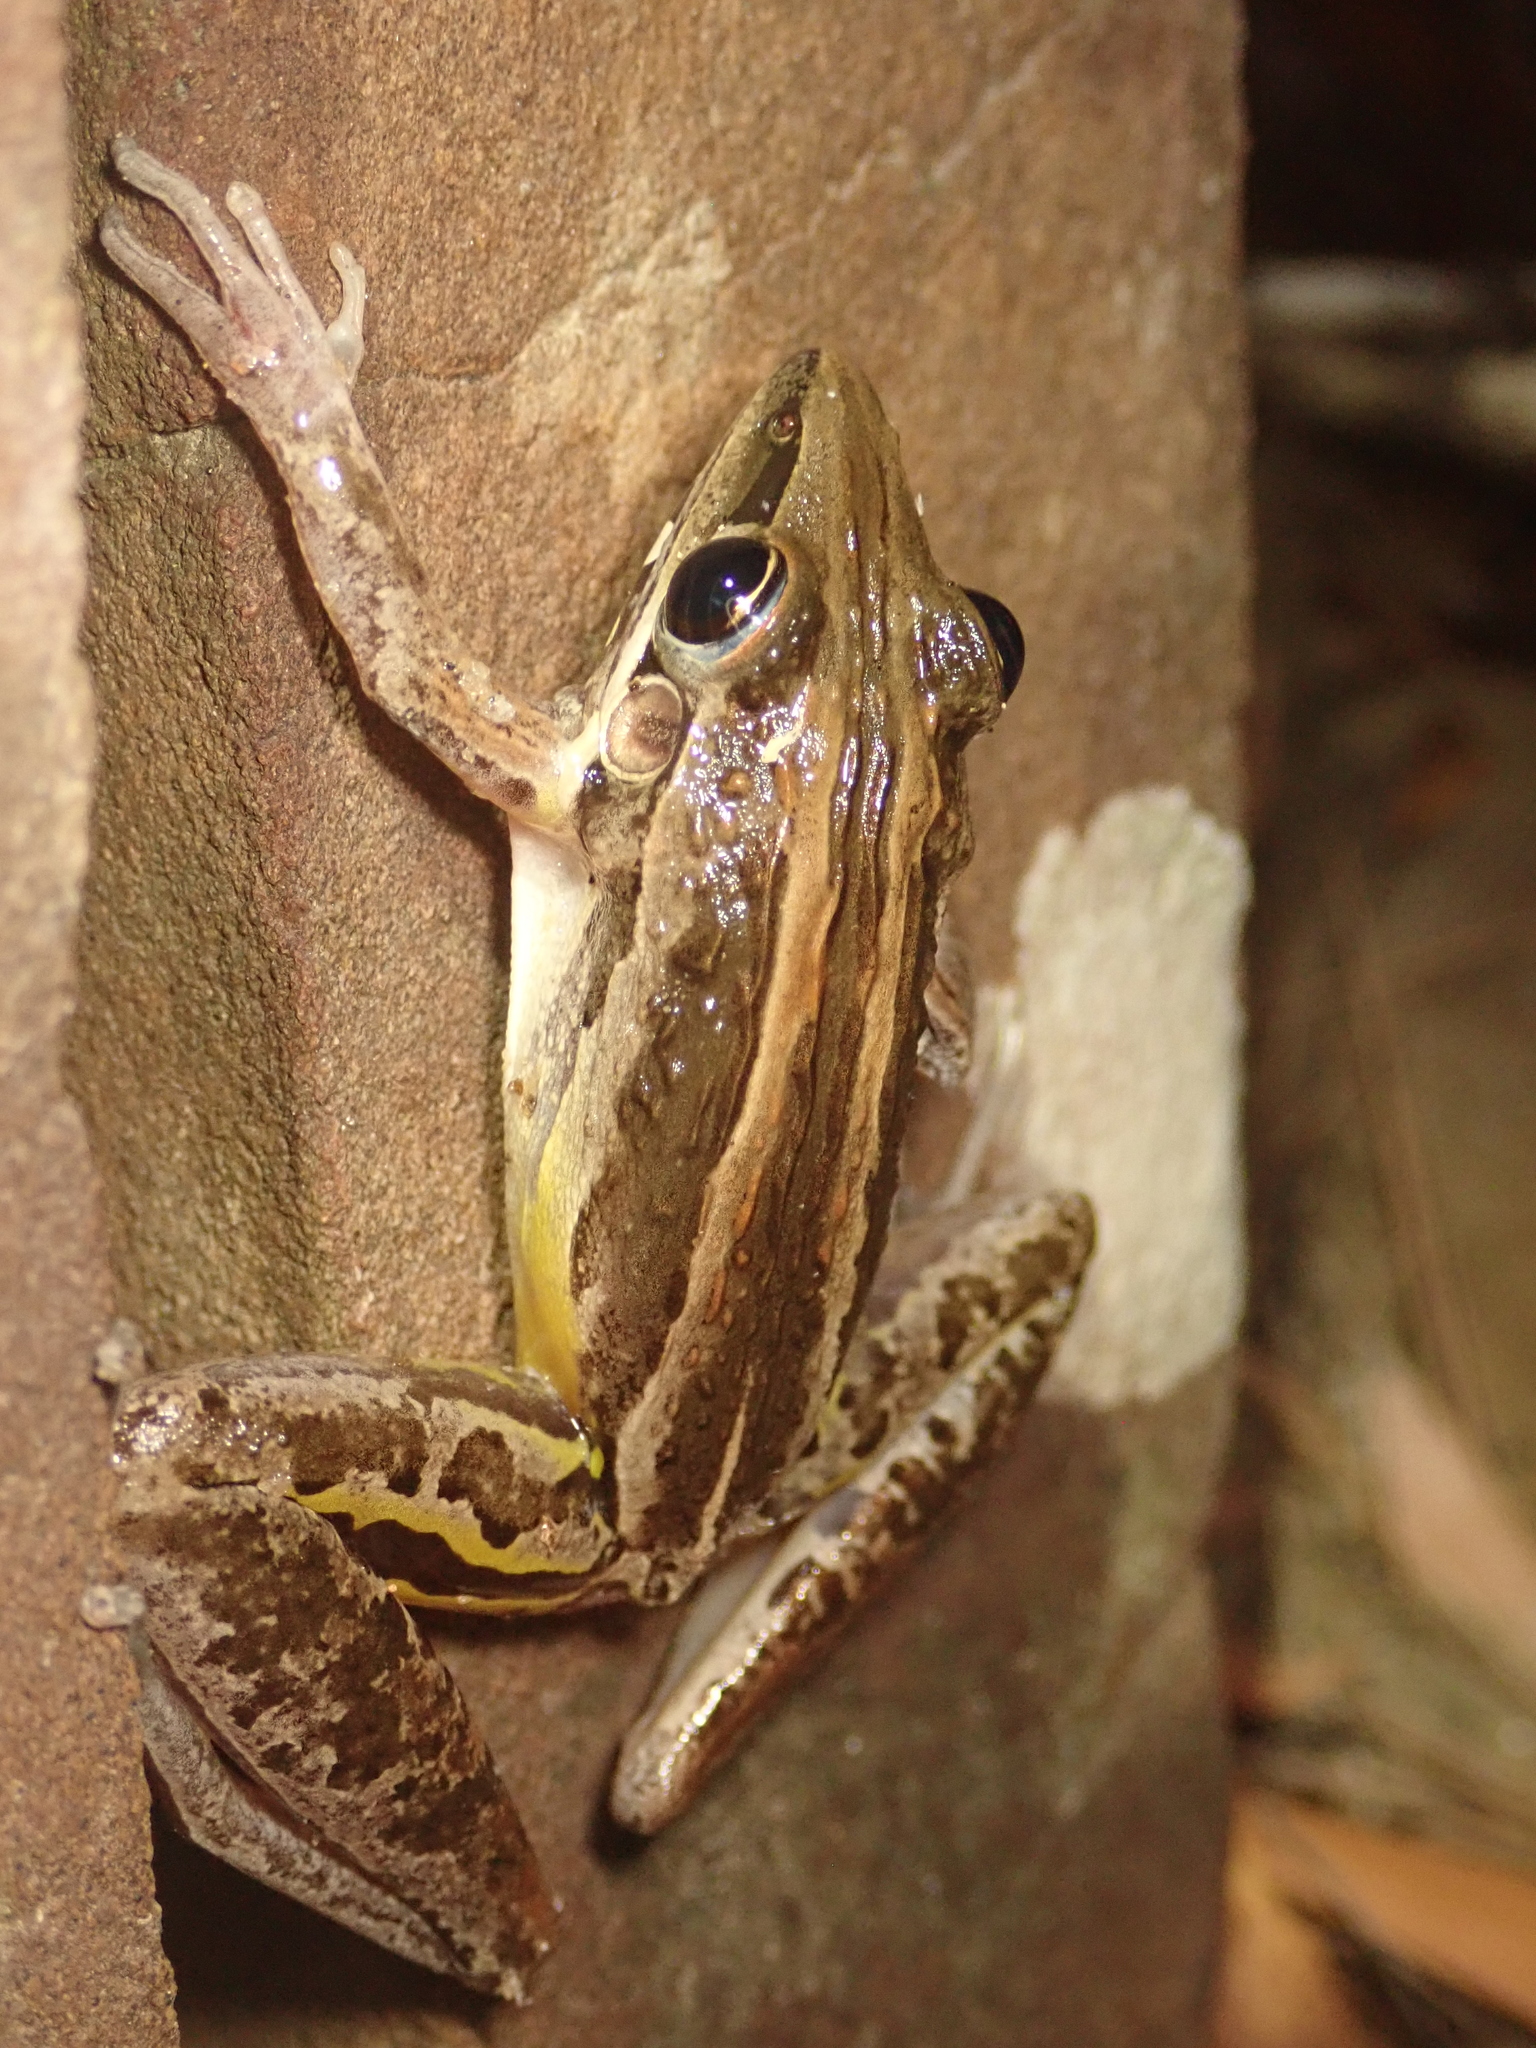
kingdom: Animalia
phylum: Chordata
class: Amphibia
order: Anura
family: Pelodryadidae
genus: Litoria
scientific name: Litoria nasuta
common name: Rocket frog
